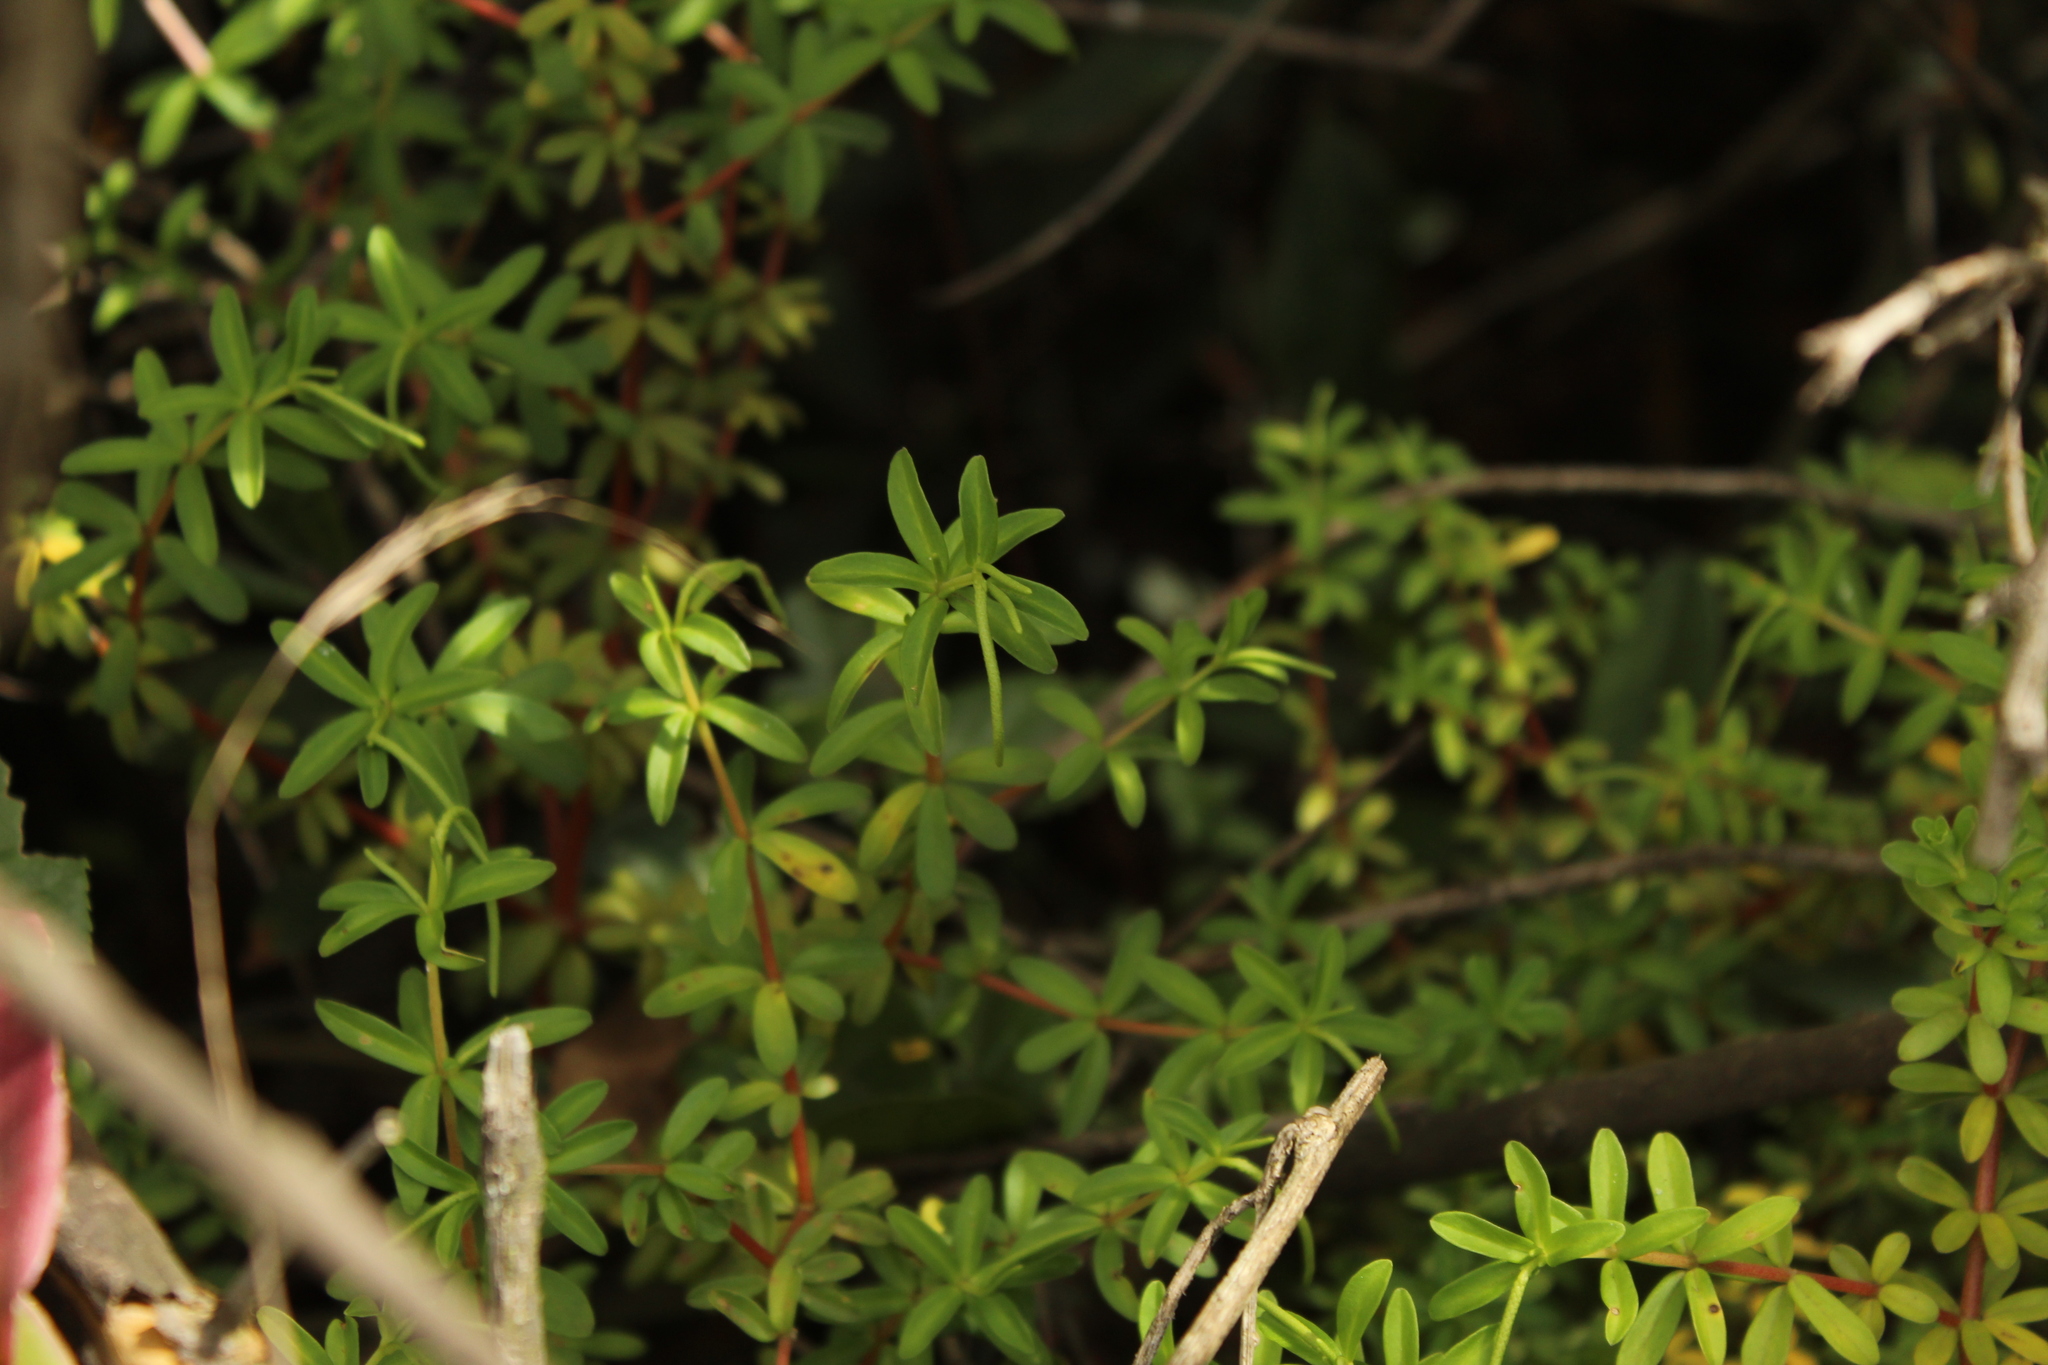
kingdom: Plantae
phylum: Tracheophyta
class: Magnoliopsida
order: Piperales
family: Piperaceae
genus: Peperomia
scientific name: Peperomia ilaloensis
